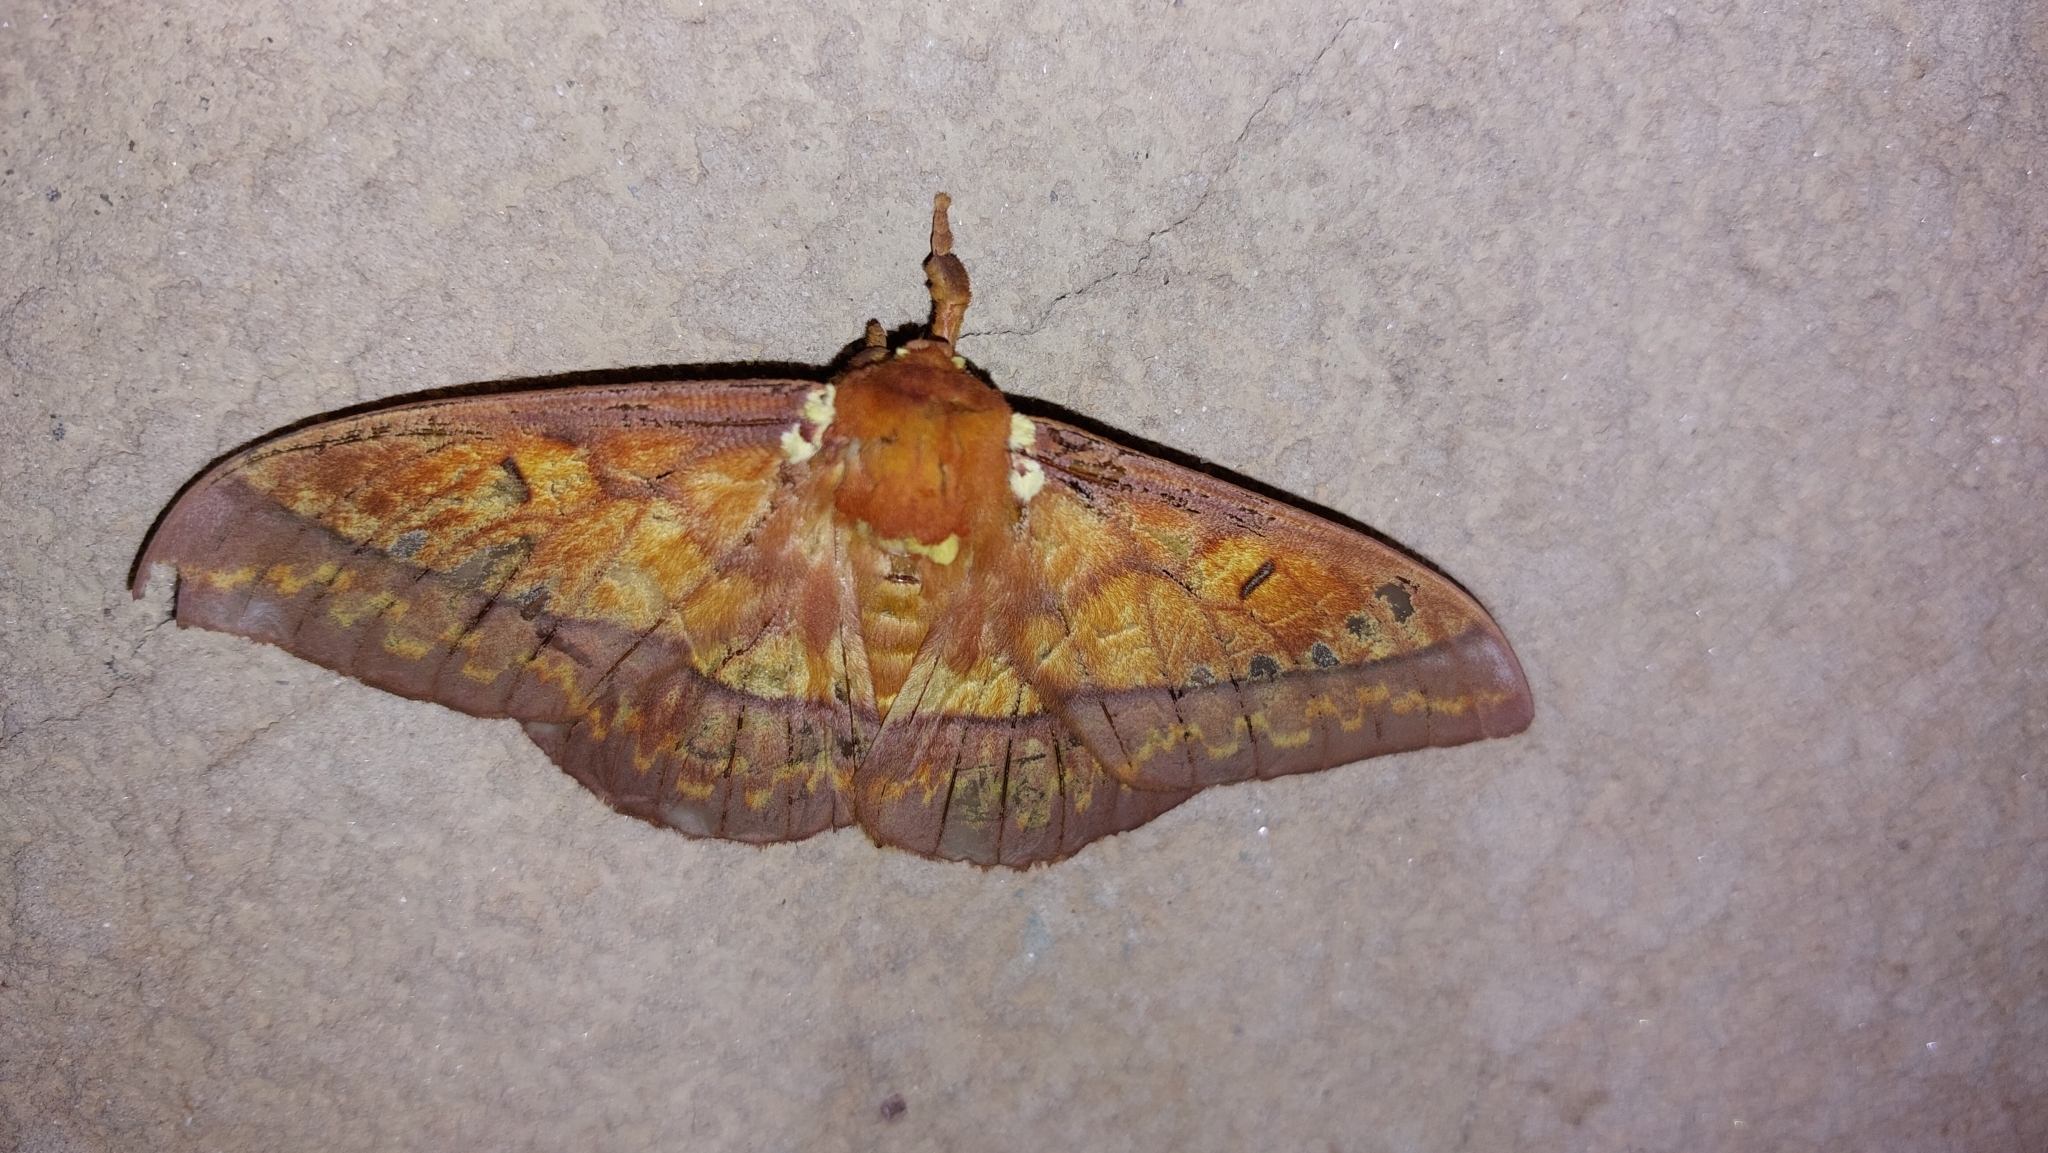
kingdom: Animalia
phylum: Arthropoda
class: Insecta
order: Lepidoptera
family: Saturniidae
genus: Procitheronia
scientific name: Procitheronia principalis
